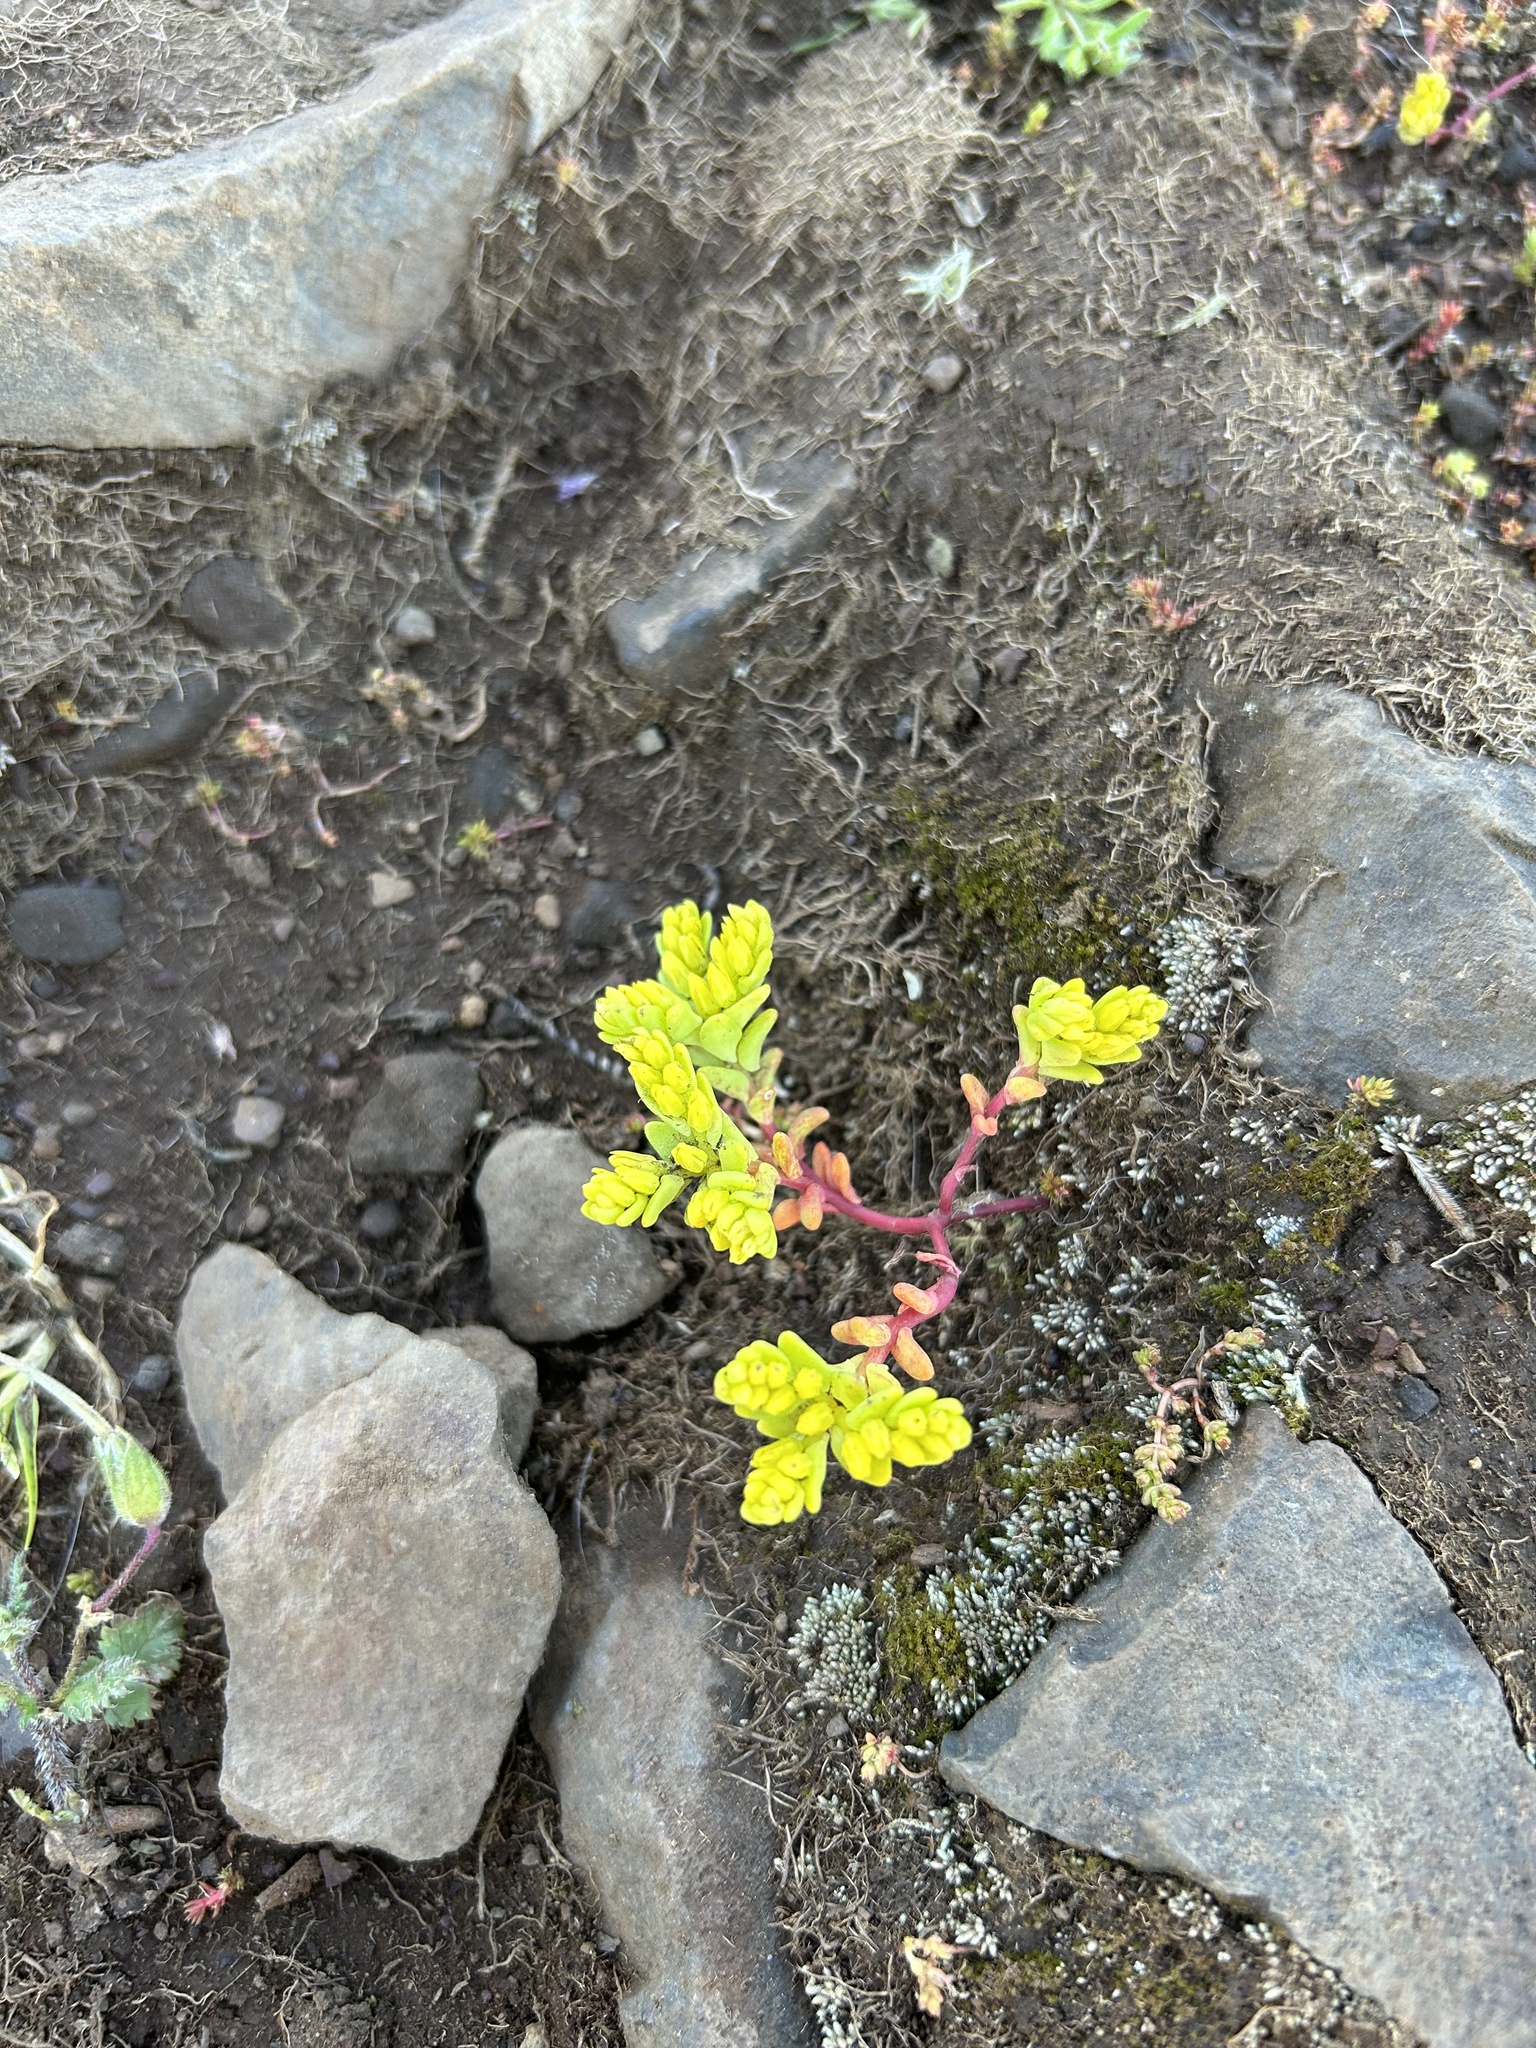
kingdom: Plantae
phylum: Tracheophyta
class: Magnoliopsida
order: Saxifragales
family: Crassulaceae
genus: Sedella
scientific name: Sedella pumila
